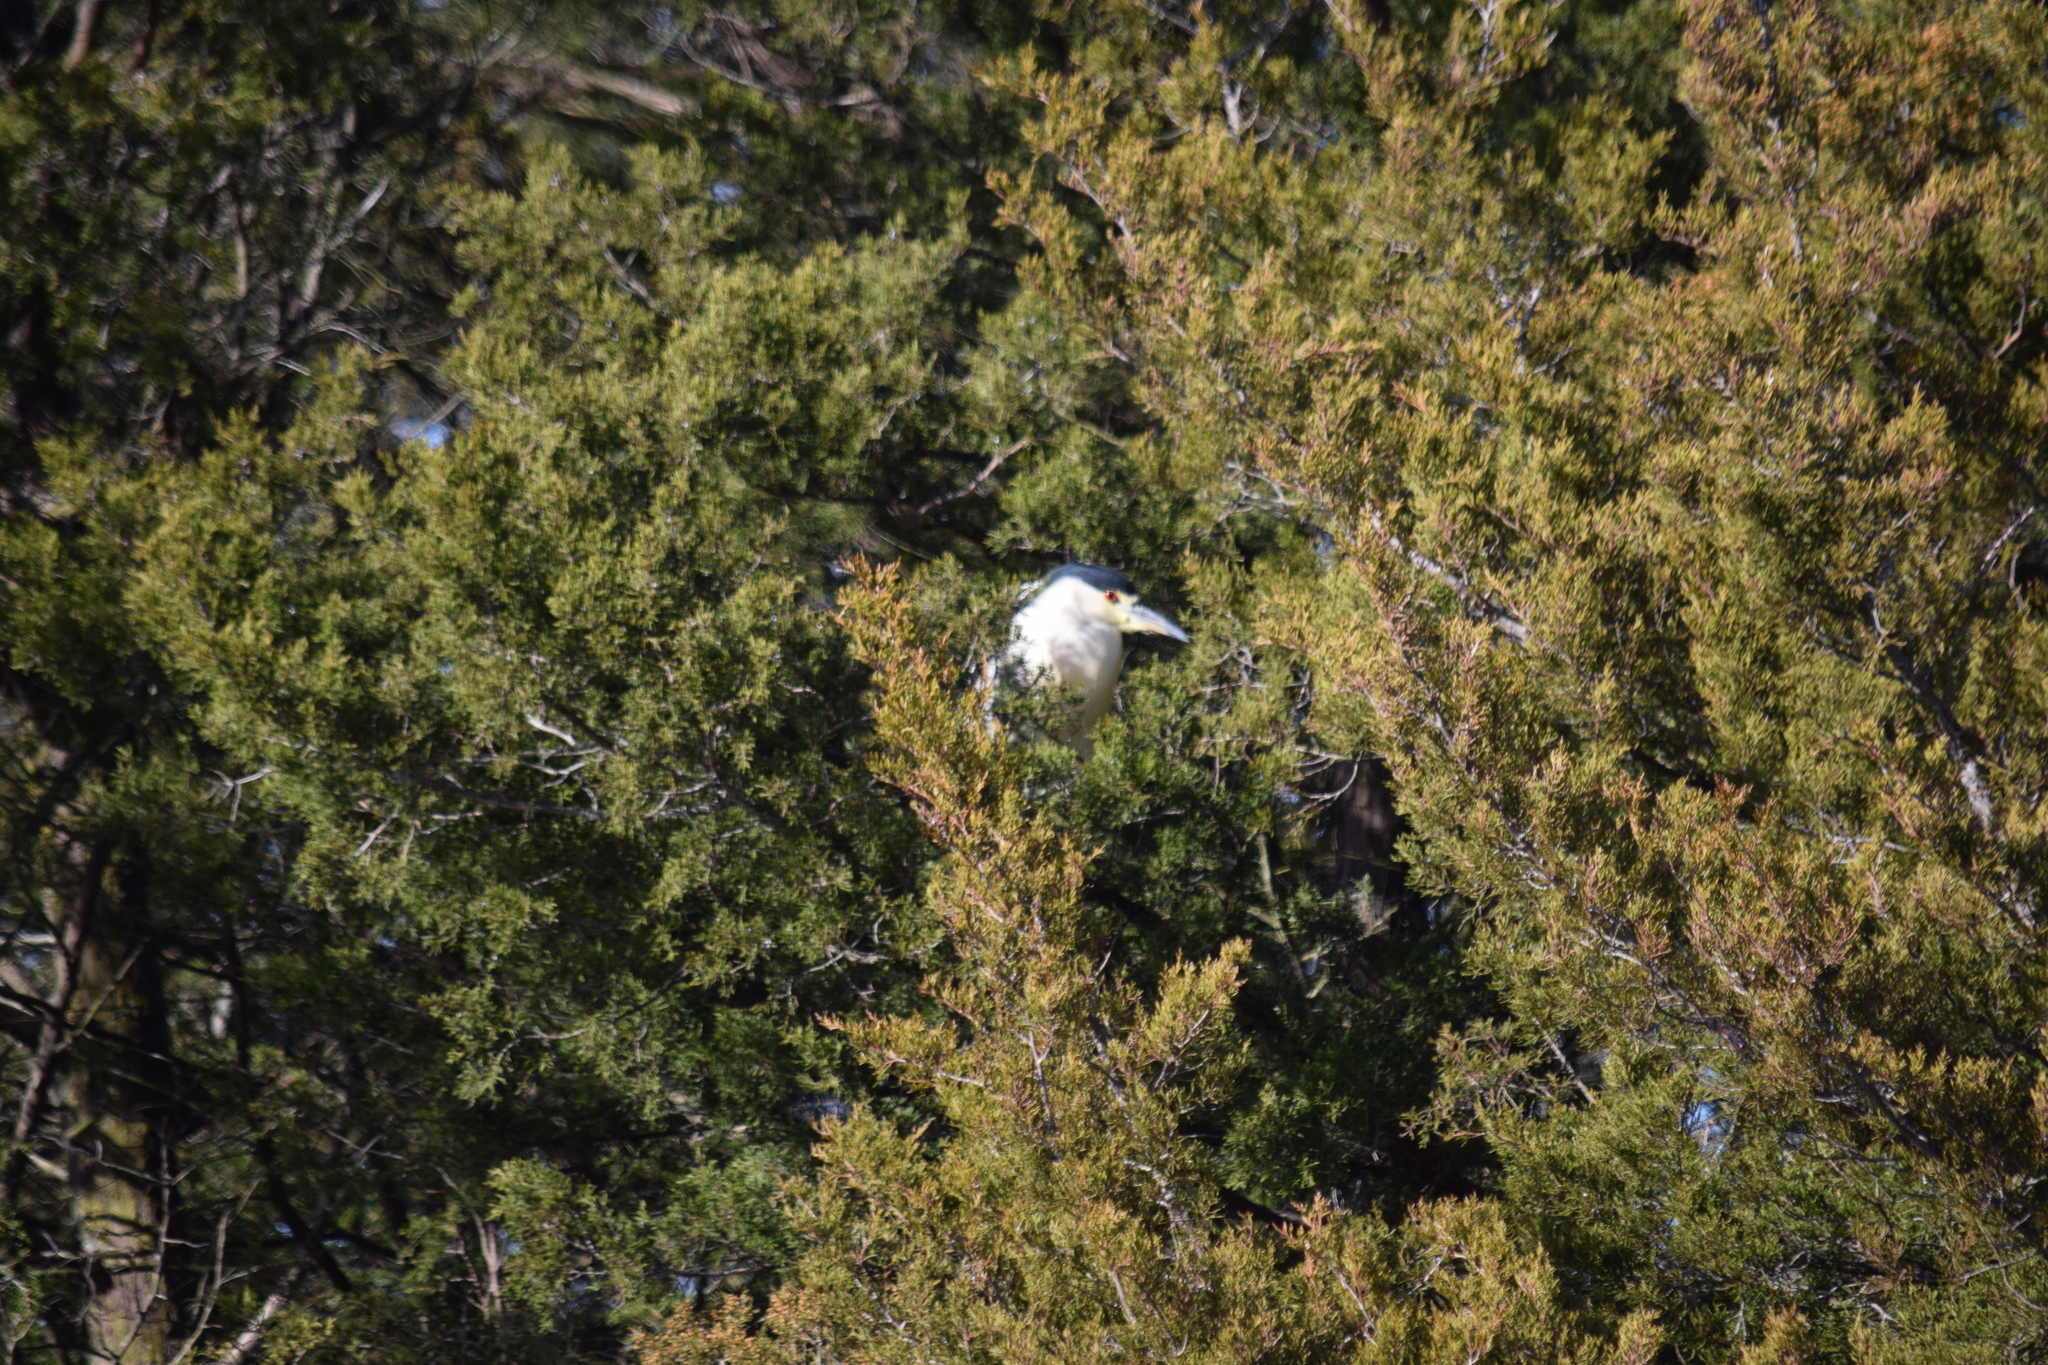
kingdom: Animalia
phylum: Chordata
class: Aves
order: Pelecaniformes
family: Ardeidae
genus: Nycticorax
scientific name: Nycticorax nycticorax
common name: Black-crowned night heron
